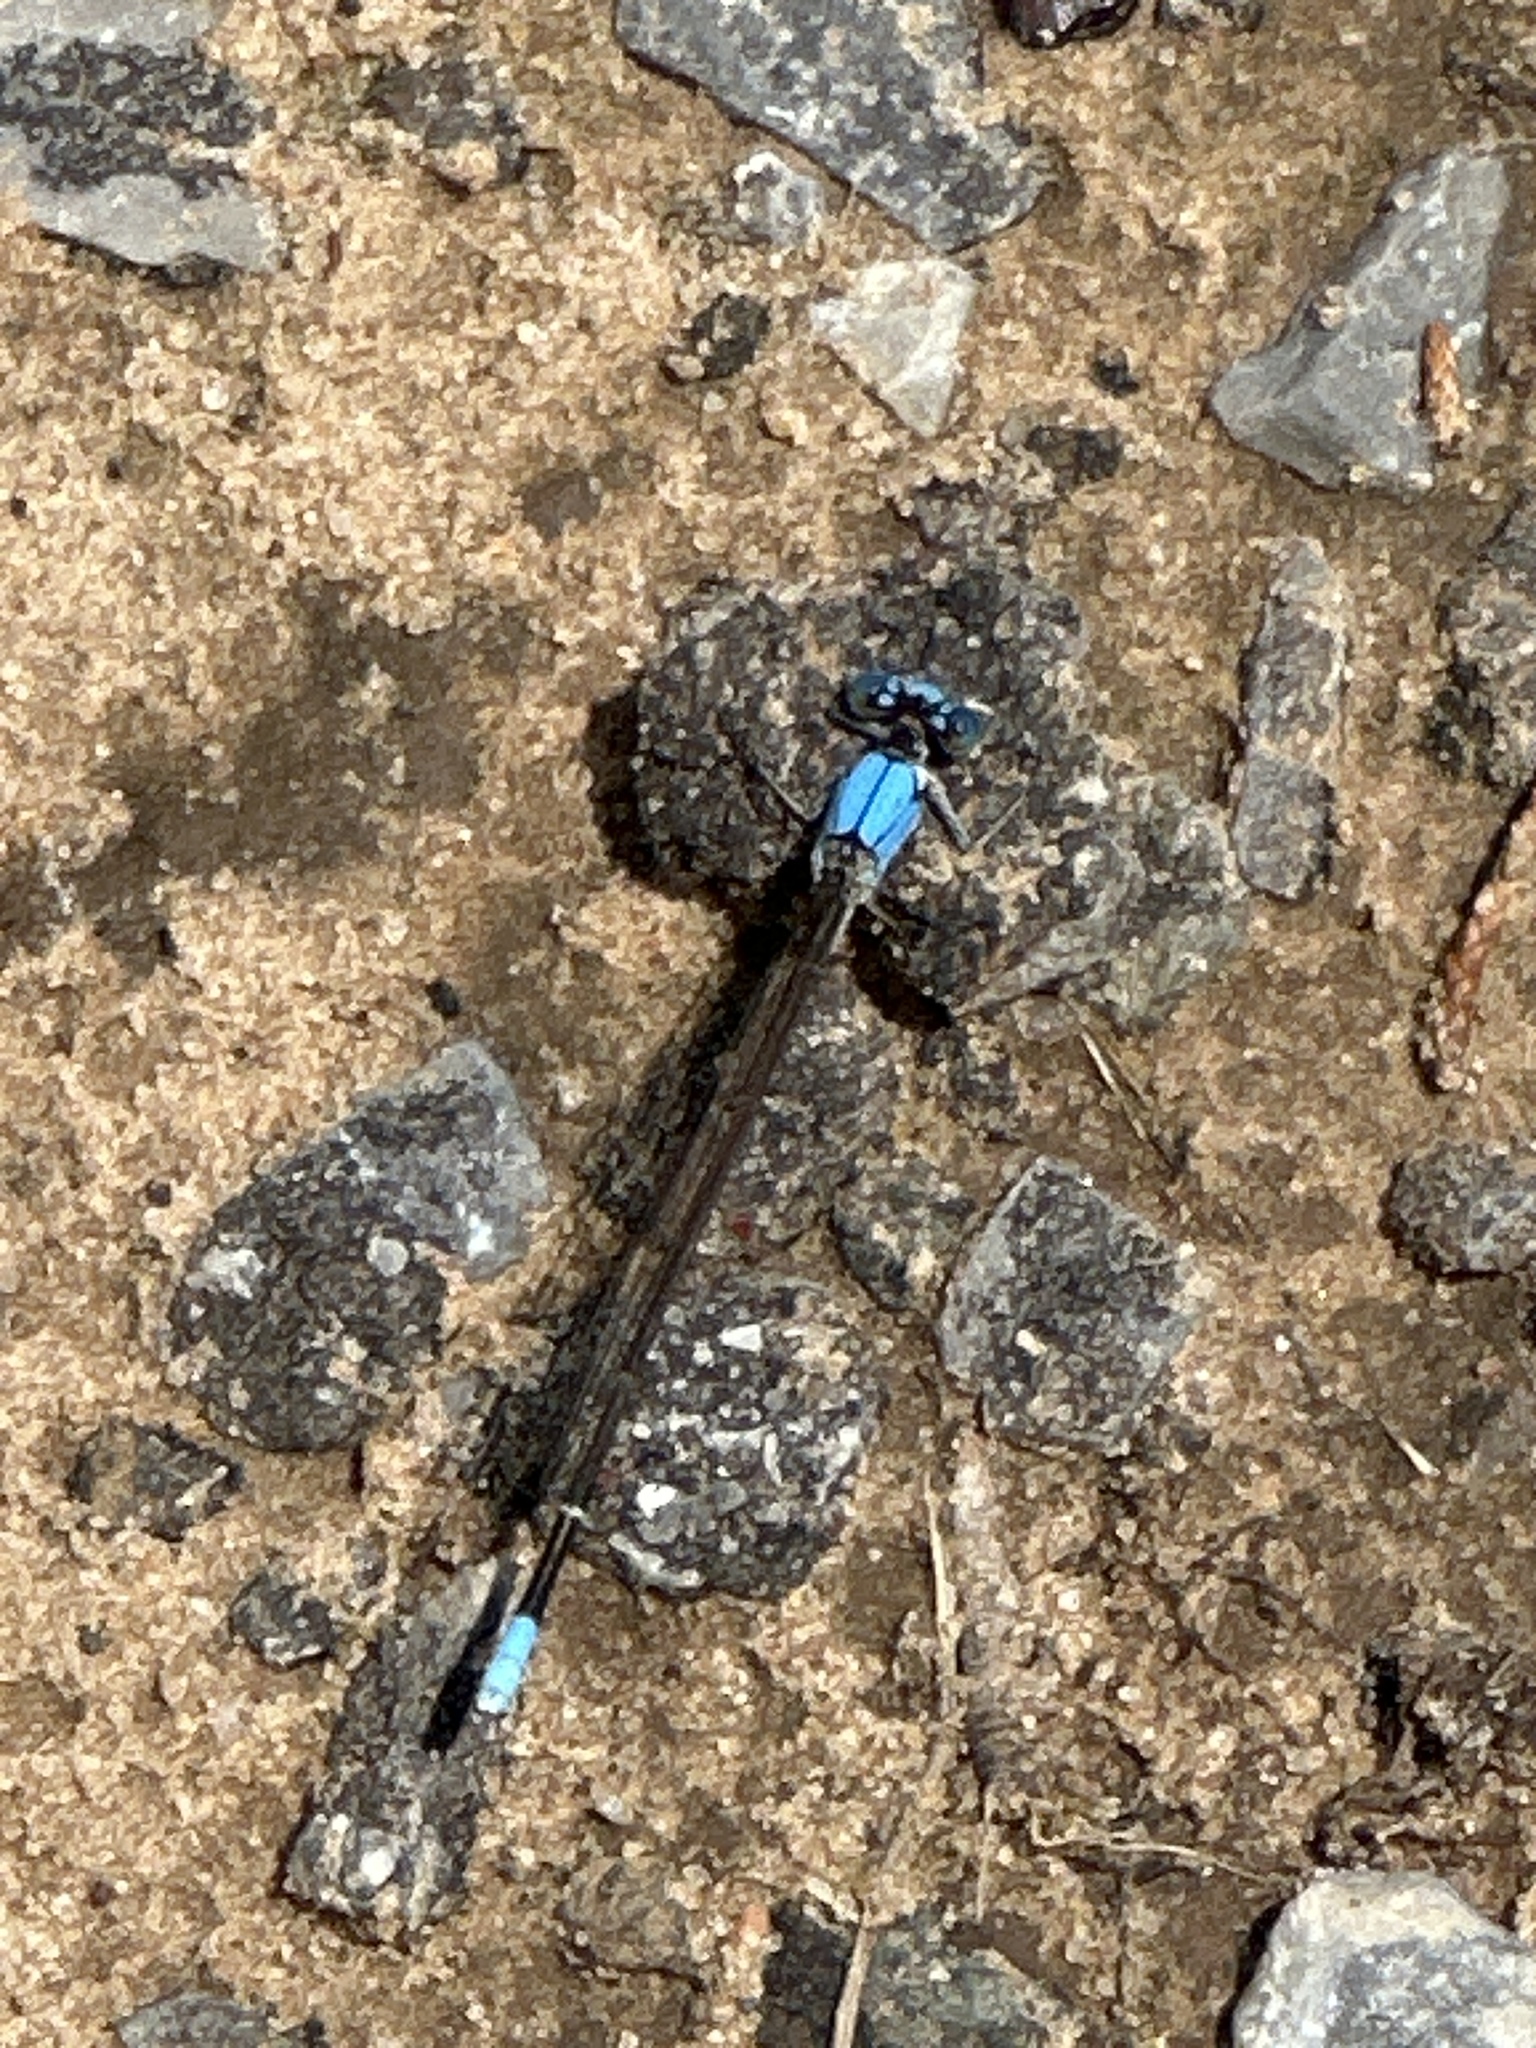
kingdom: Animalia
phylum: Arthropoda
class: Insecta
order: Odonata
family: Coenagrionidae
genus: Argia
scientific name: Argia apicalis
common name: Blue-fronted dancer
